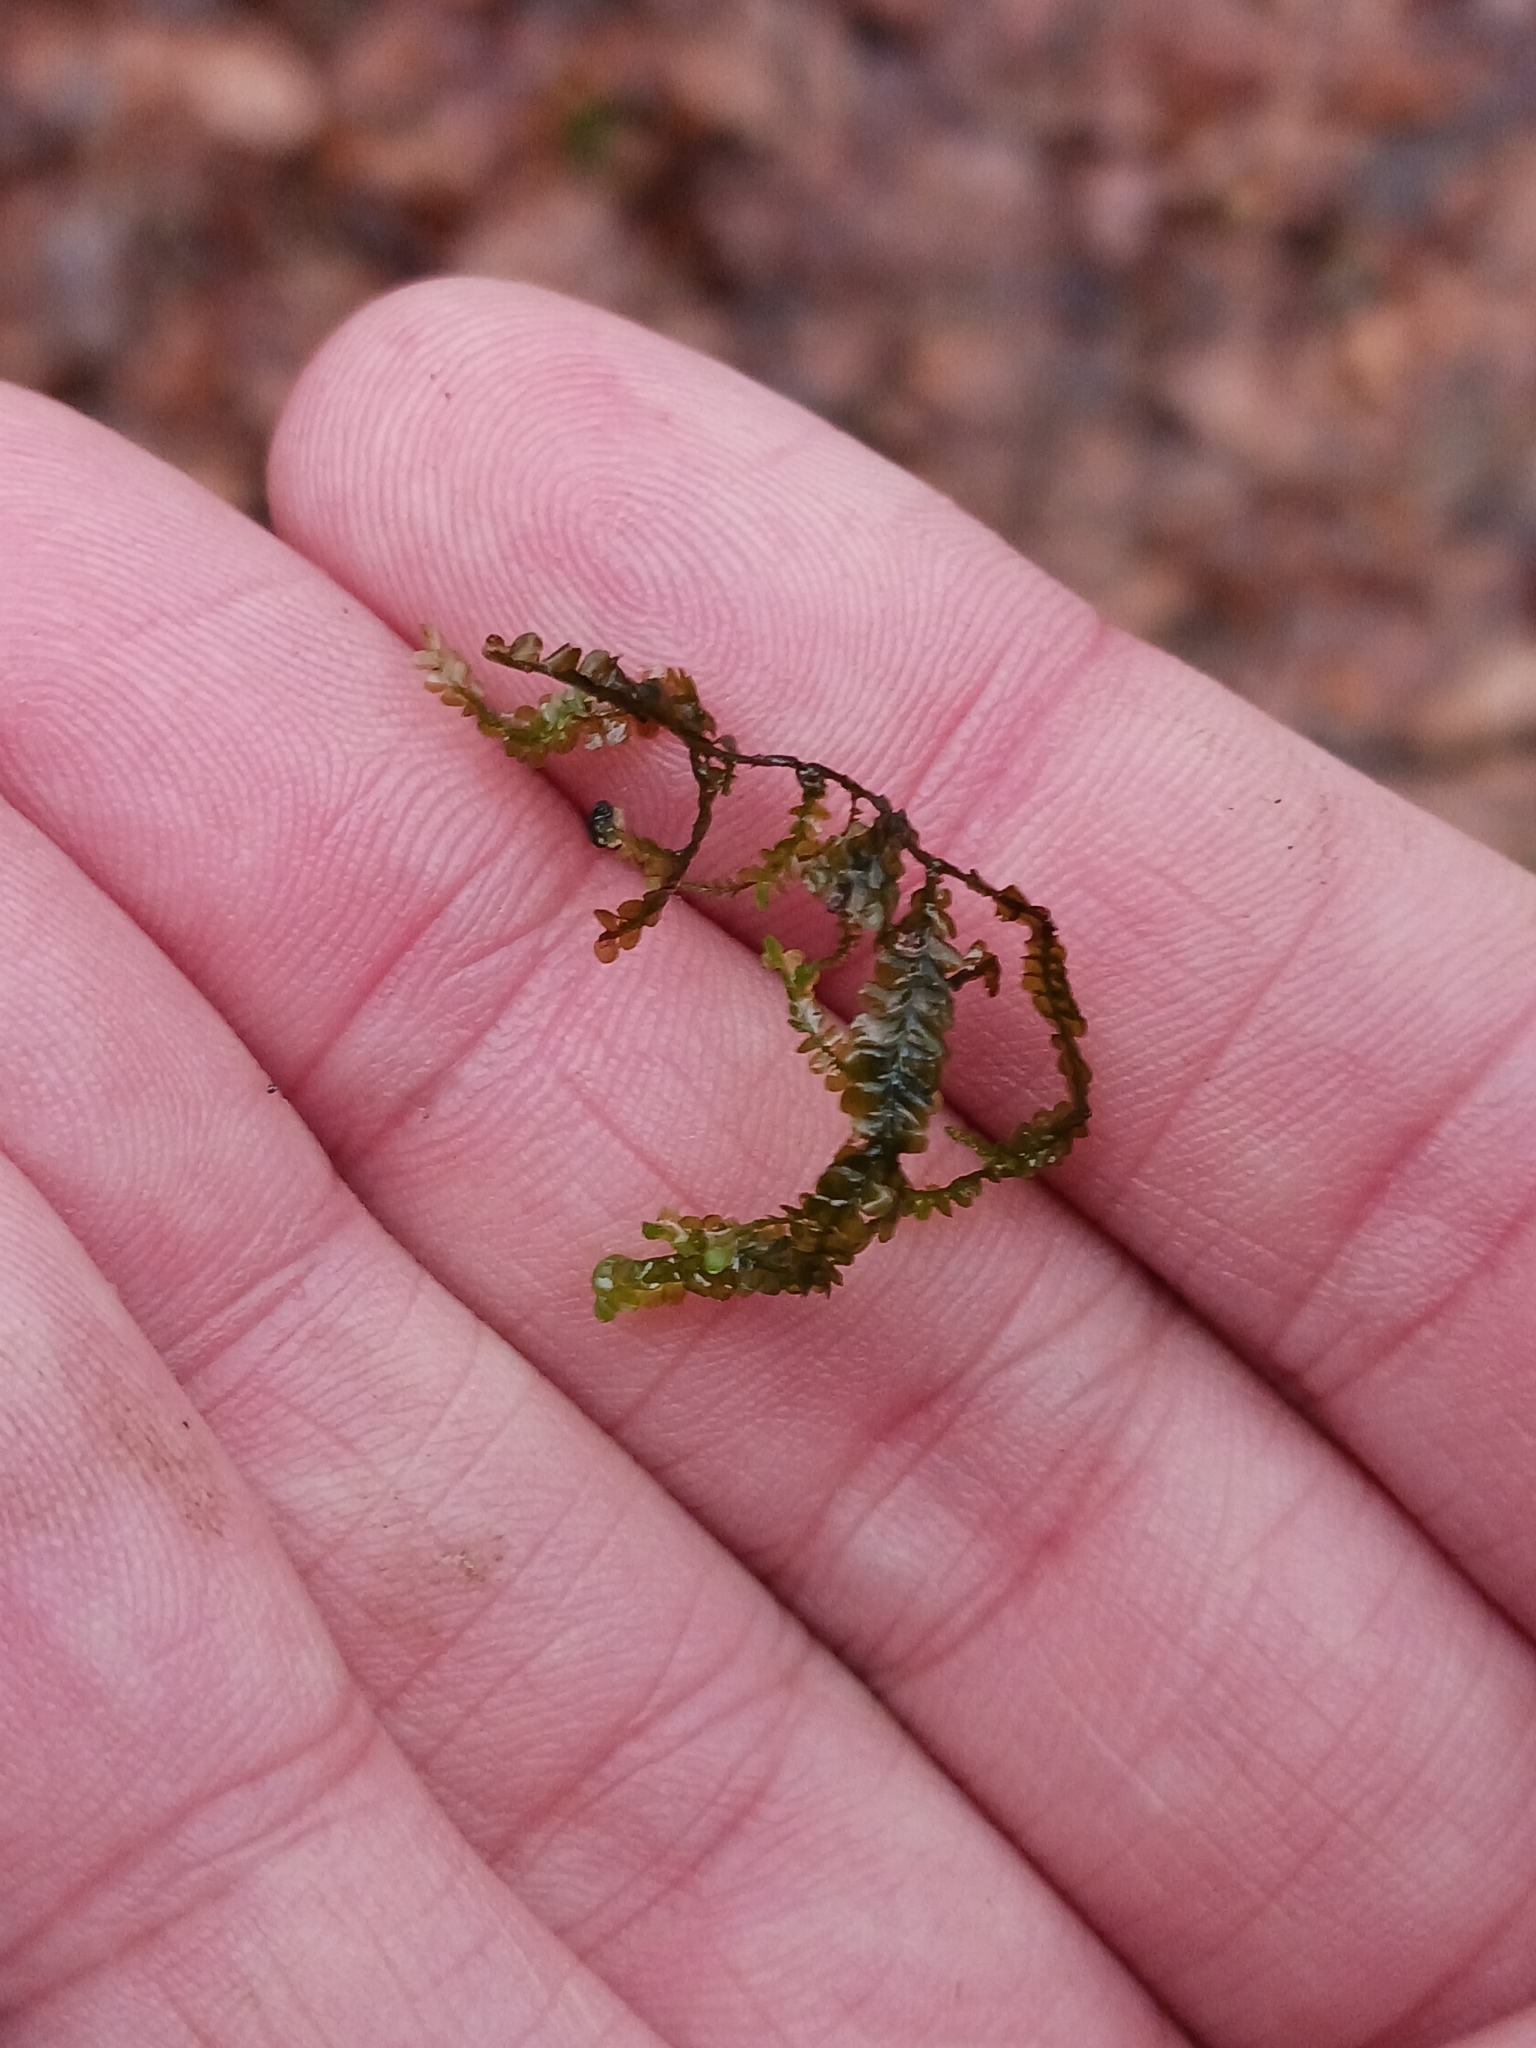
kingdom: Plantae
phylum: Marchantiophyta
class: Jungermanniopsida
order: Jungermanniales
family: Lophocoleaceae
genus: Chiloscyphus
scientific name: Chiloscyphus polyanthos
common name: Square-leaved crestwort
